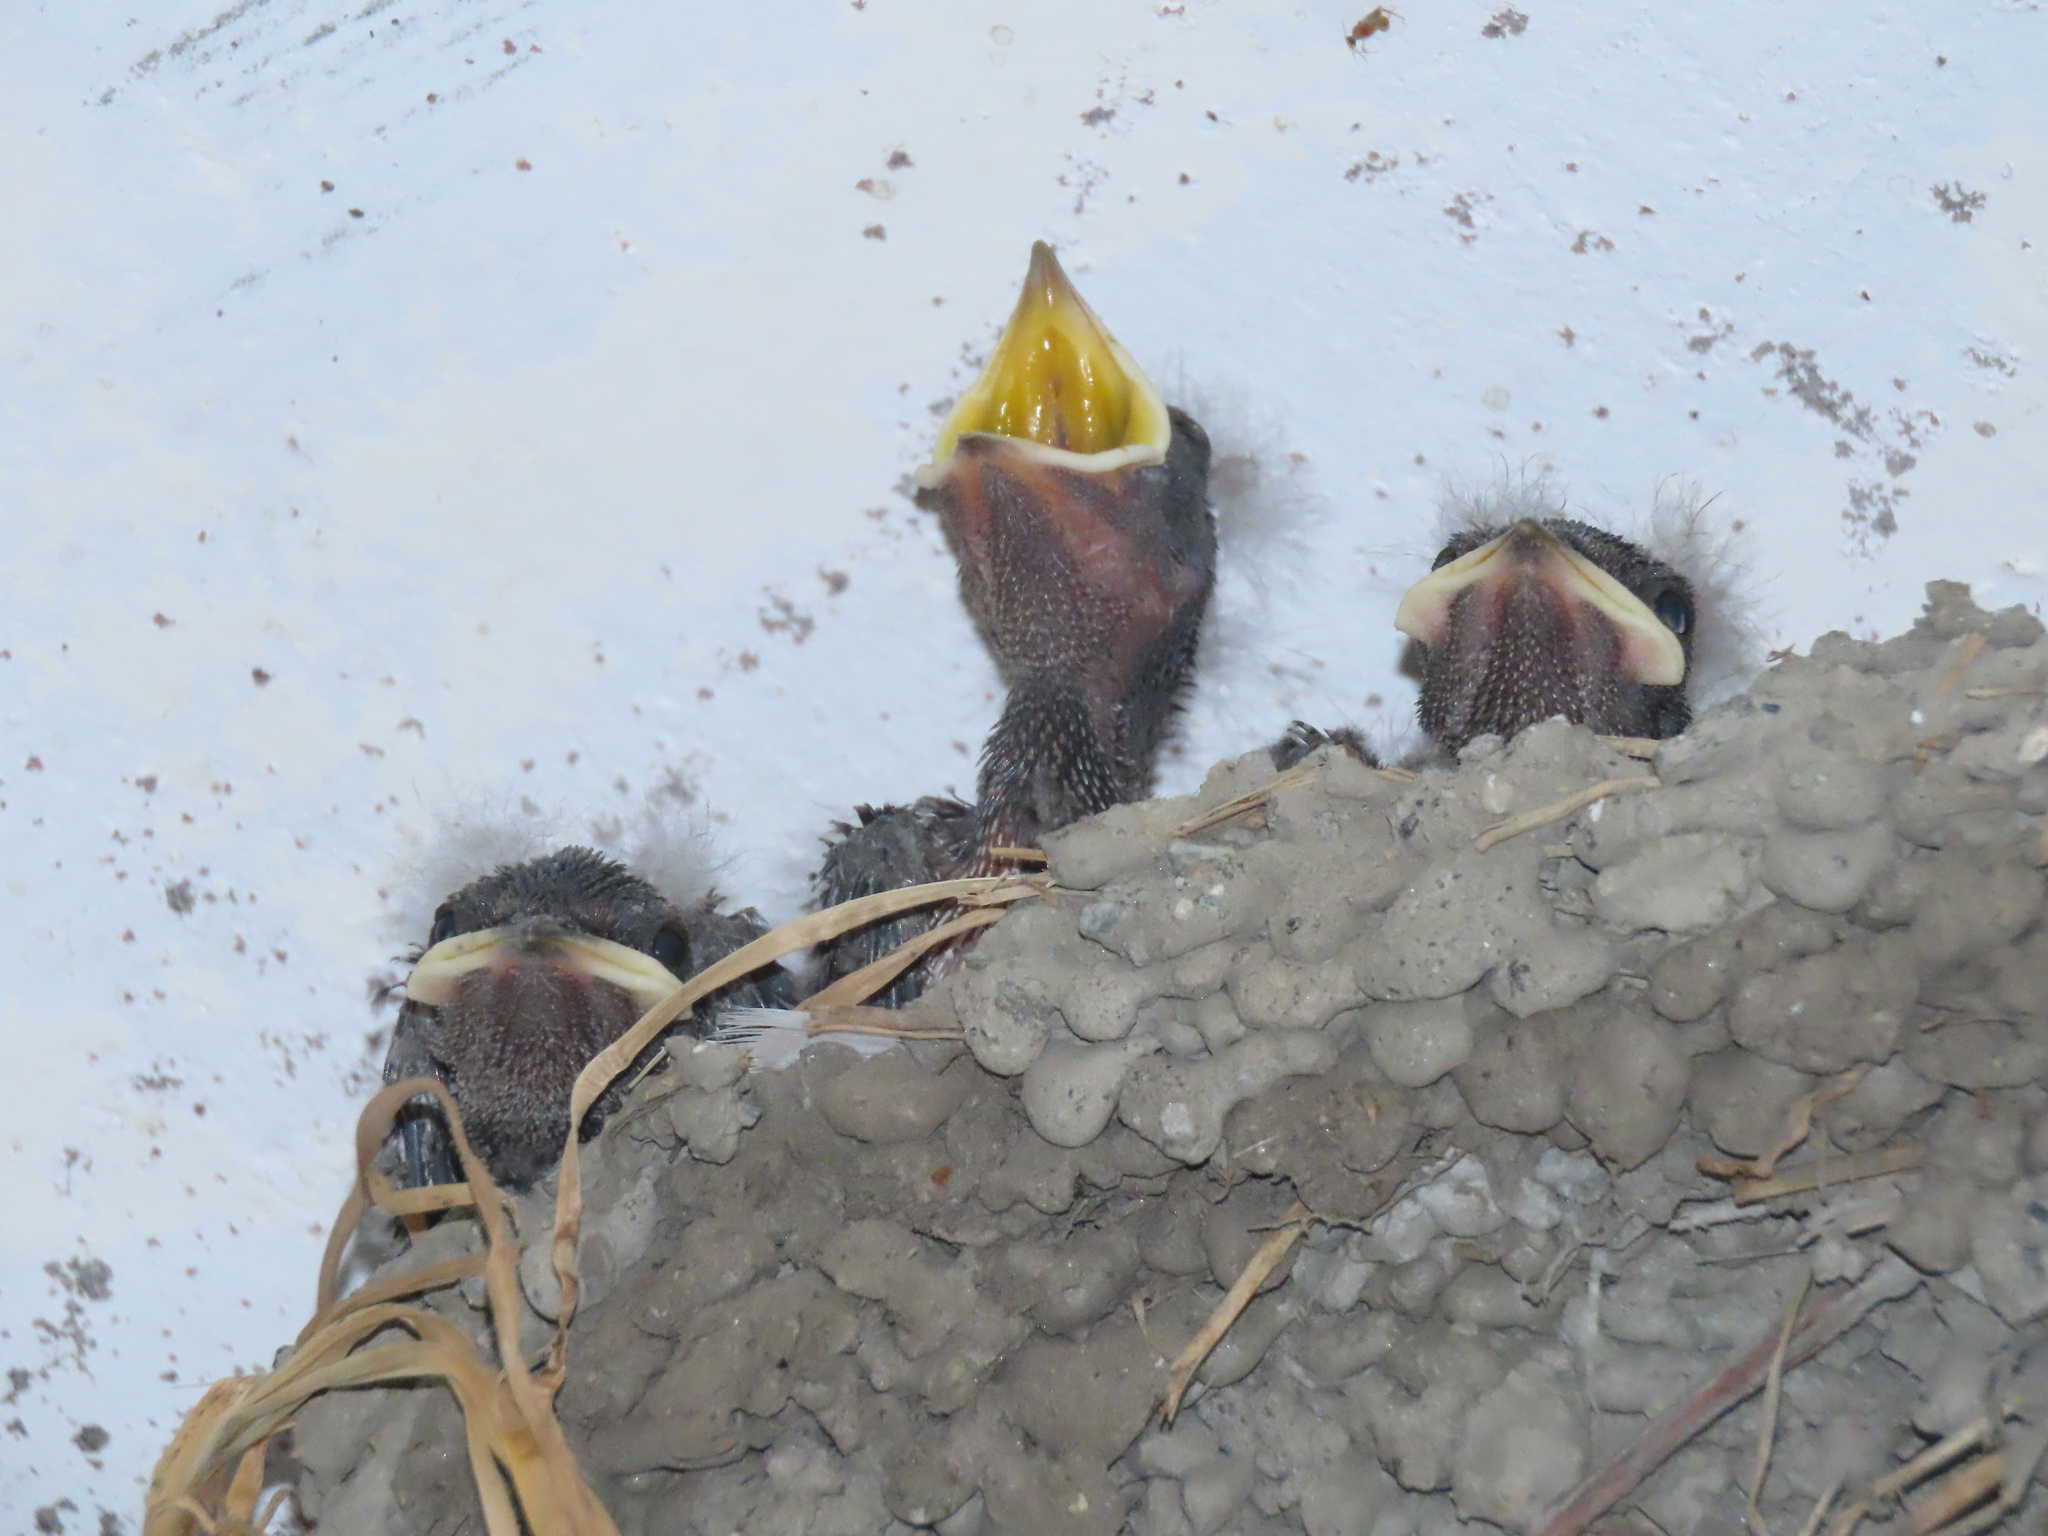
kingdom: Animalia
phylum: Chordata
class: Aves
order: Passeriformes
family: Hirundinidae
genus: Hirundo
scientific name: Hirundo rustica
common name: Barn swallow
